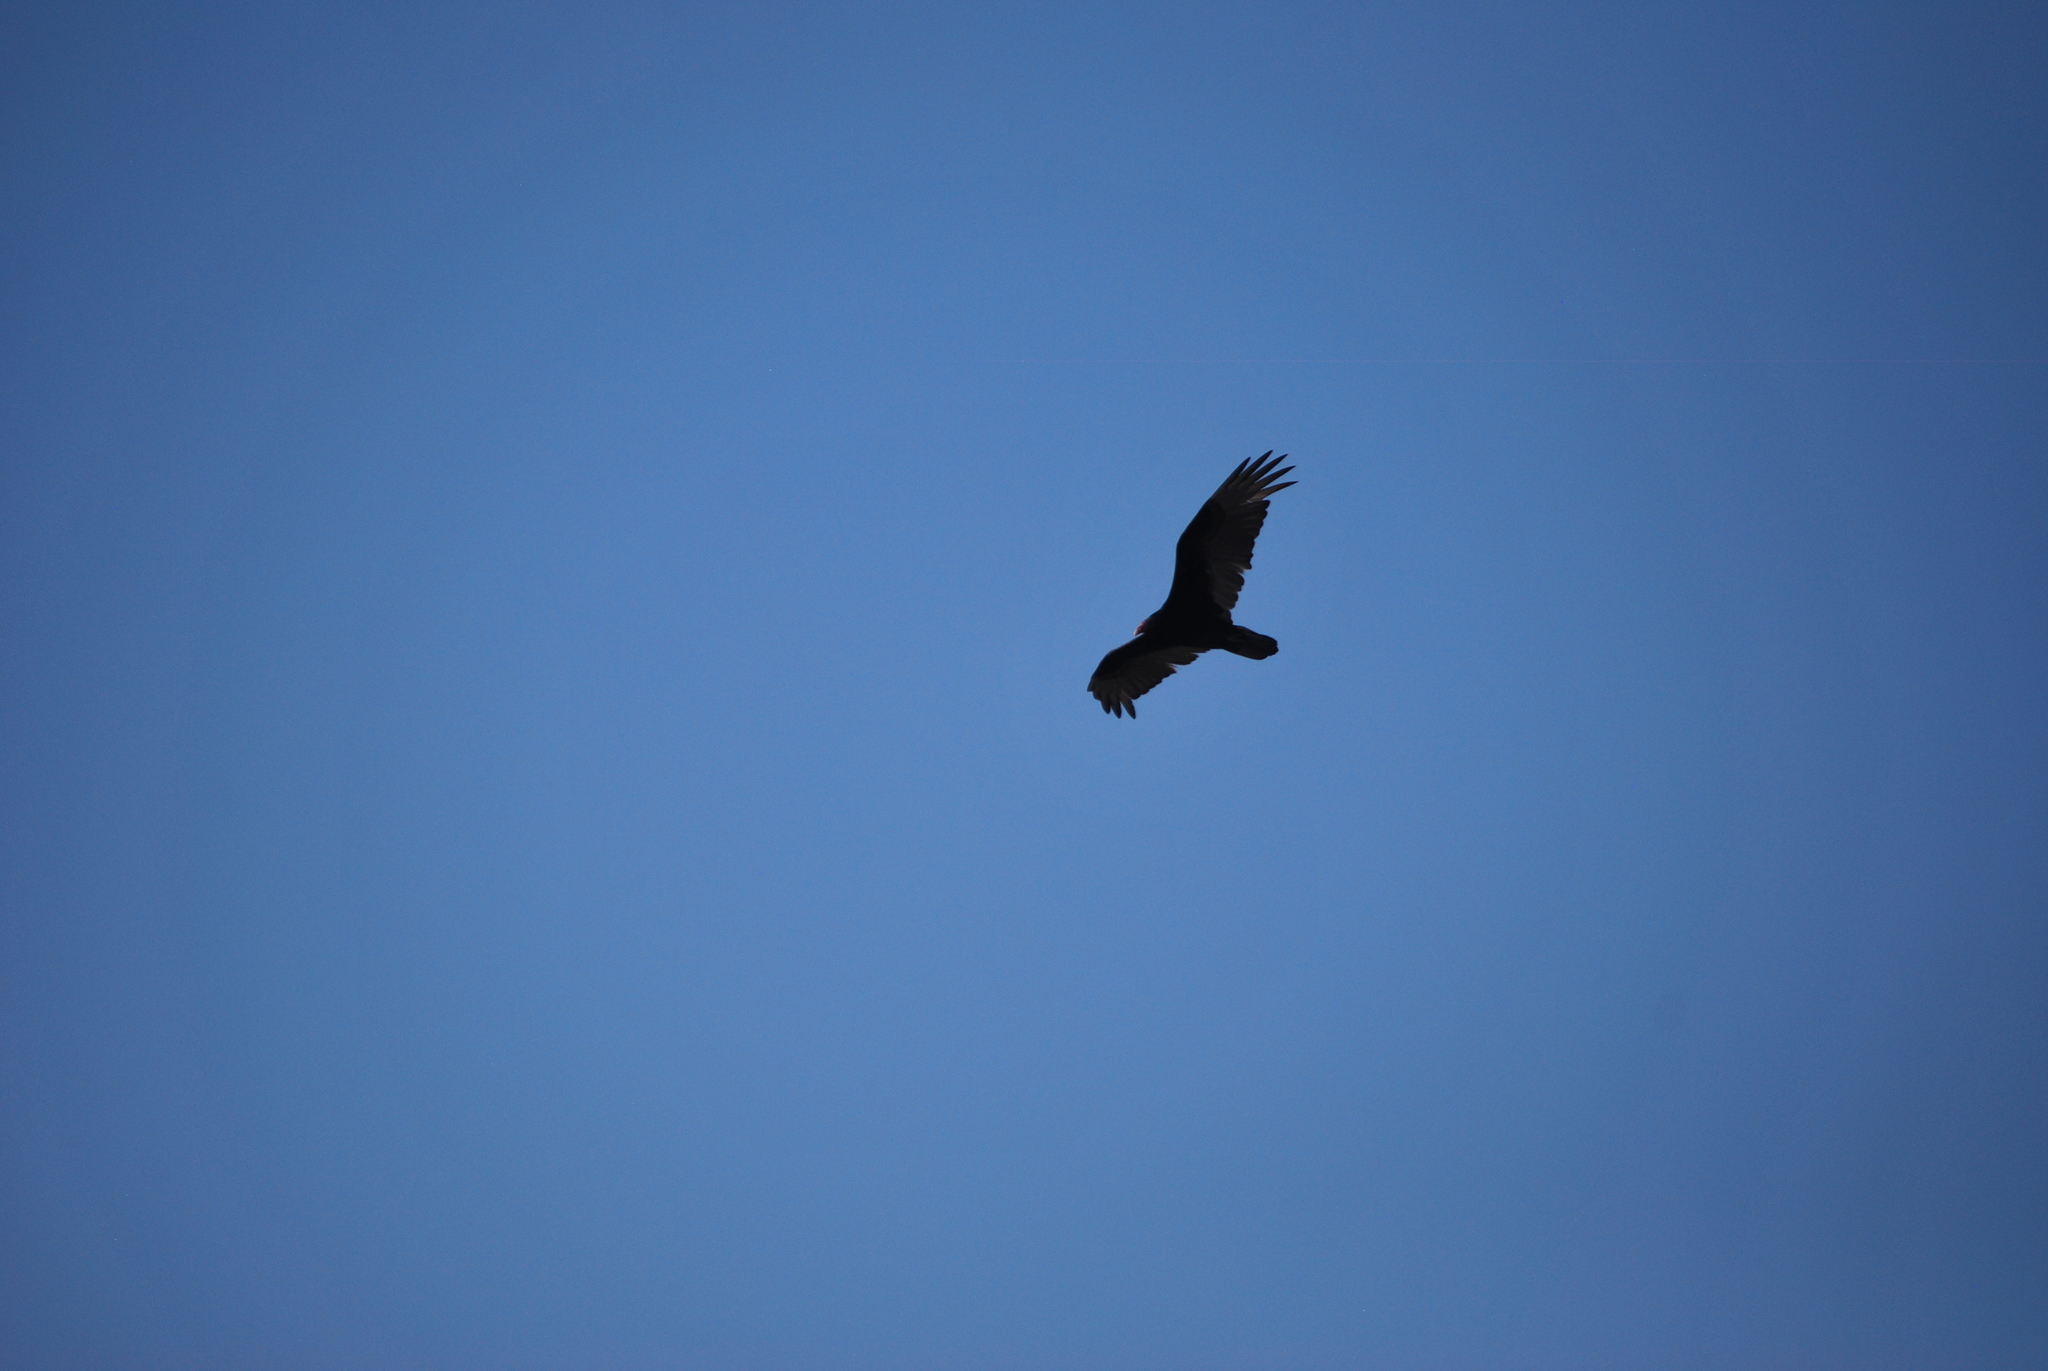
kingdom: Animalia
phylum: Chordata
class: Aves
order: Accipitriformes
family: Cathartidae
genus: Cathartes
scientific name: Cathartes aura
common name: Turkey vulture
